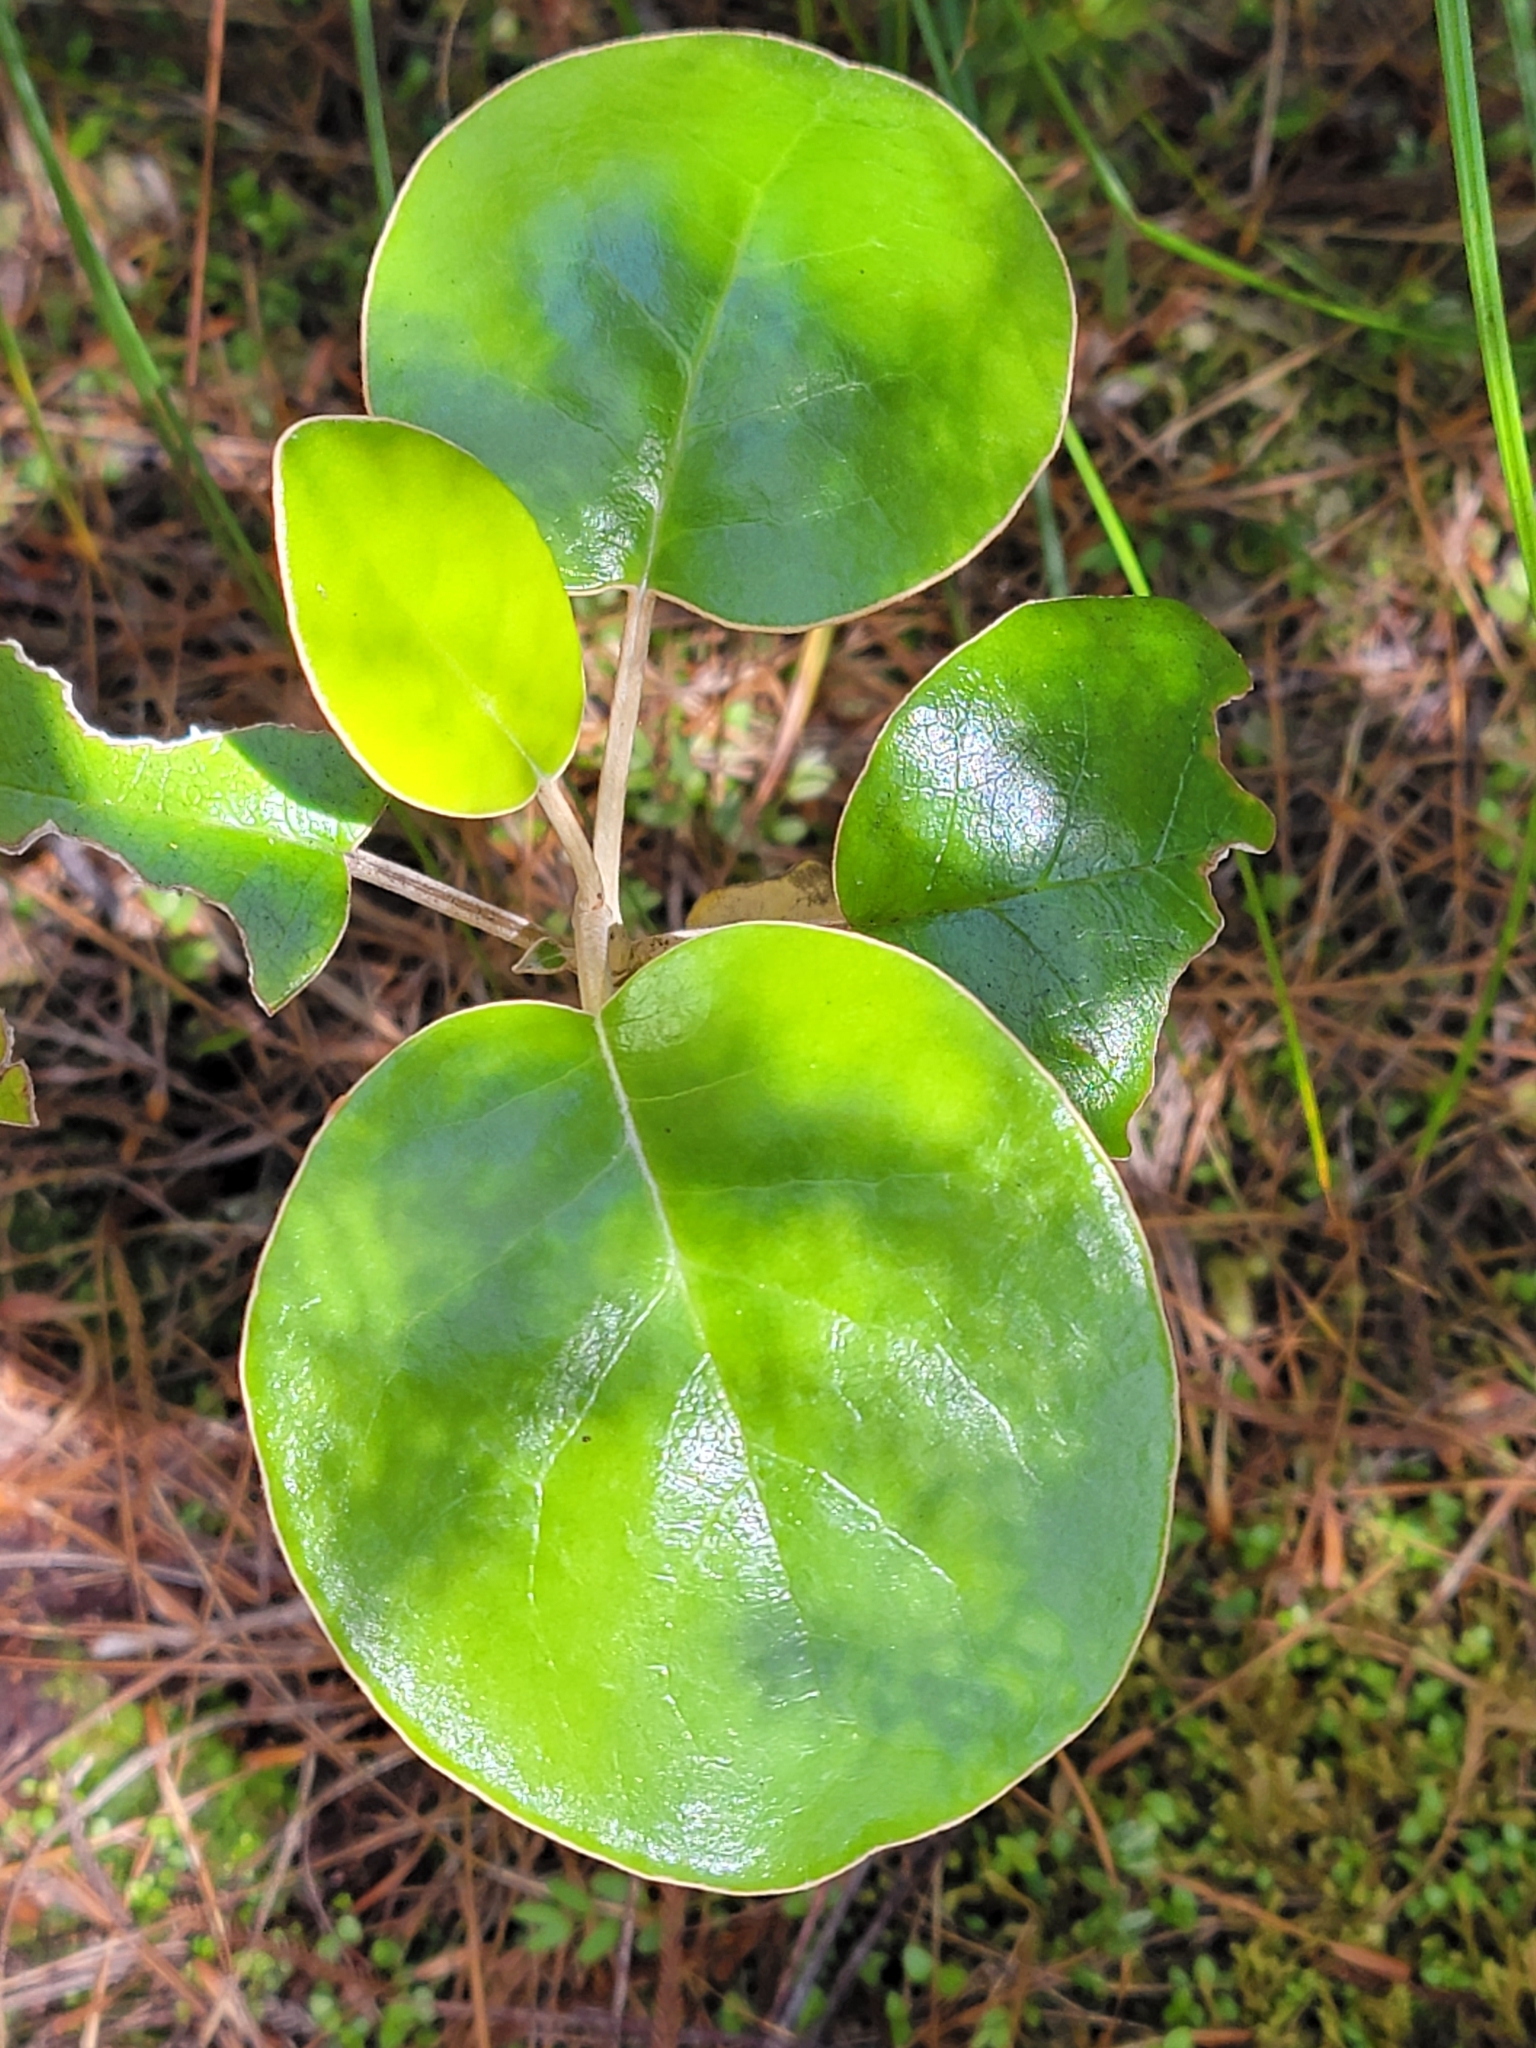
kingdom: Plantae
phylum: Tracheophyta
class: Magnoliopsida
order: Asterales
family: Asteraceae
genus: Brachyglottis
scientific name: Brachyglottis rotundifolia
